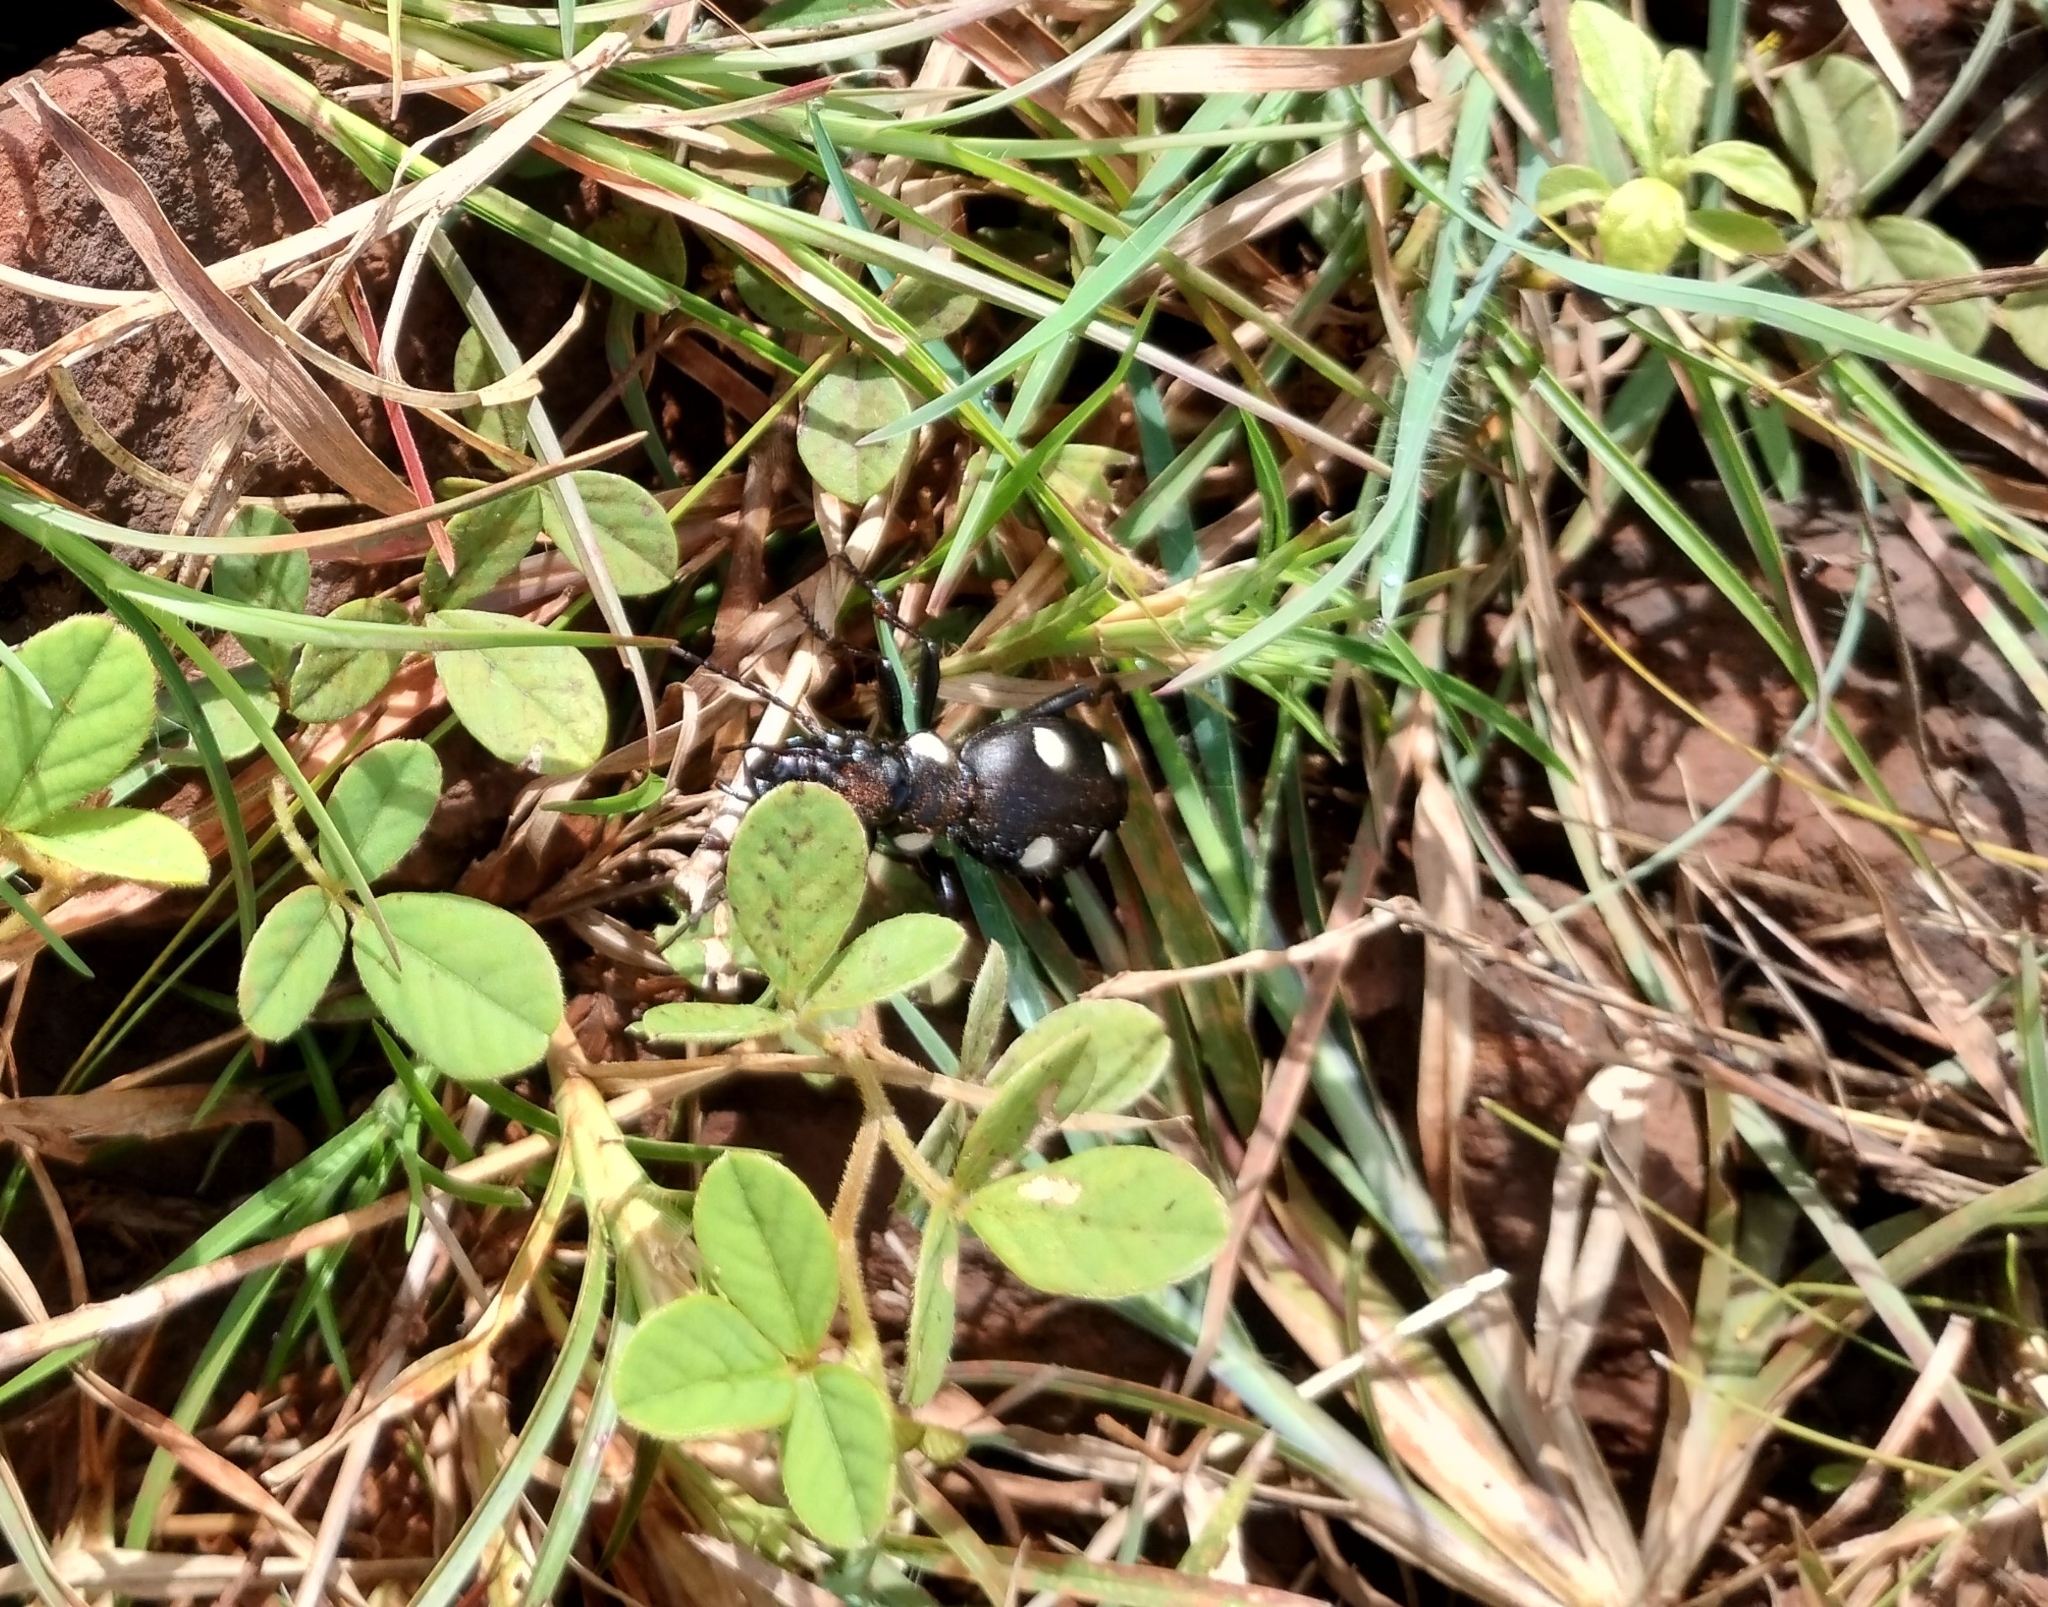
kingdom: Animalia
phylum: Arthropoda
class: Insecta
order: Coleoptera
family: Carabidae
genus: Anthia
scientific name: Anthia sexguttata
